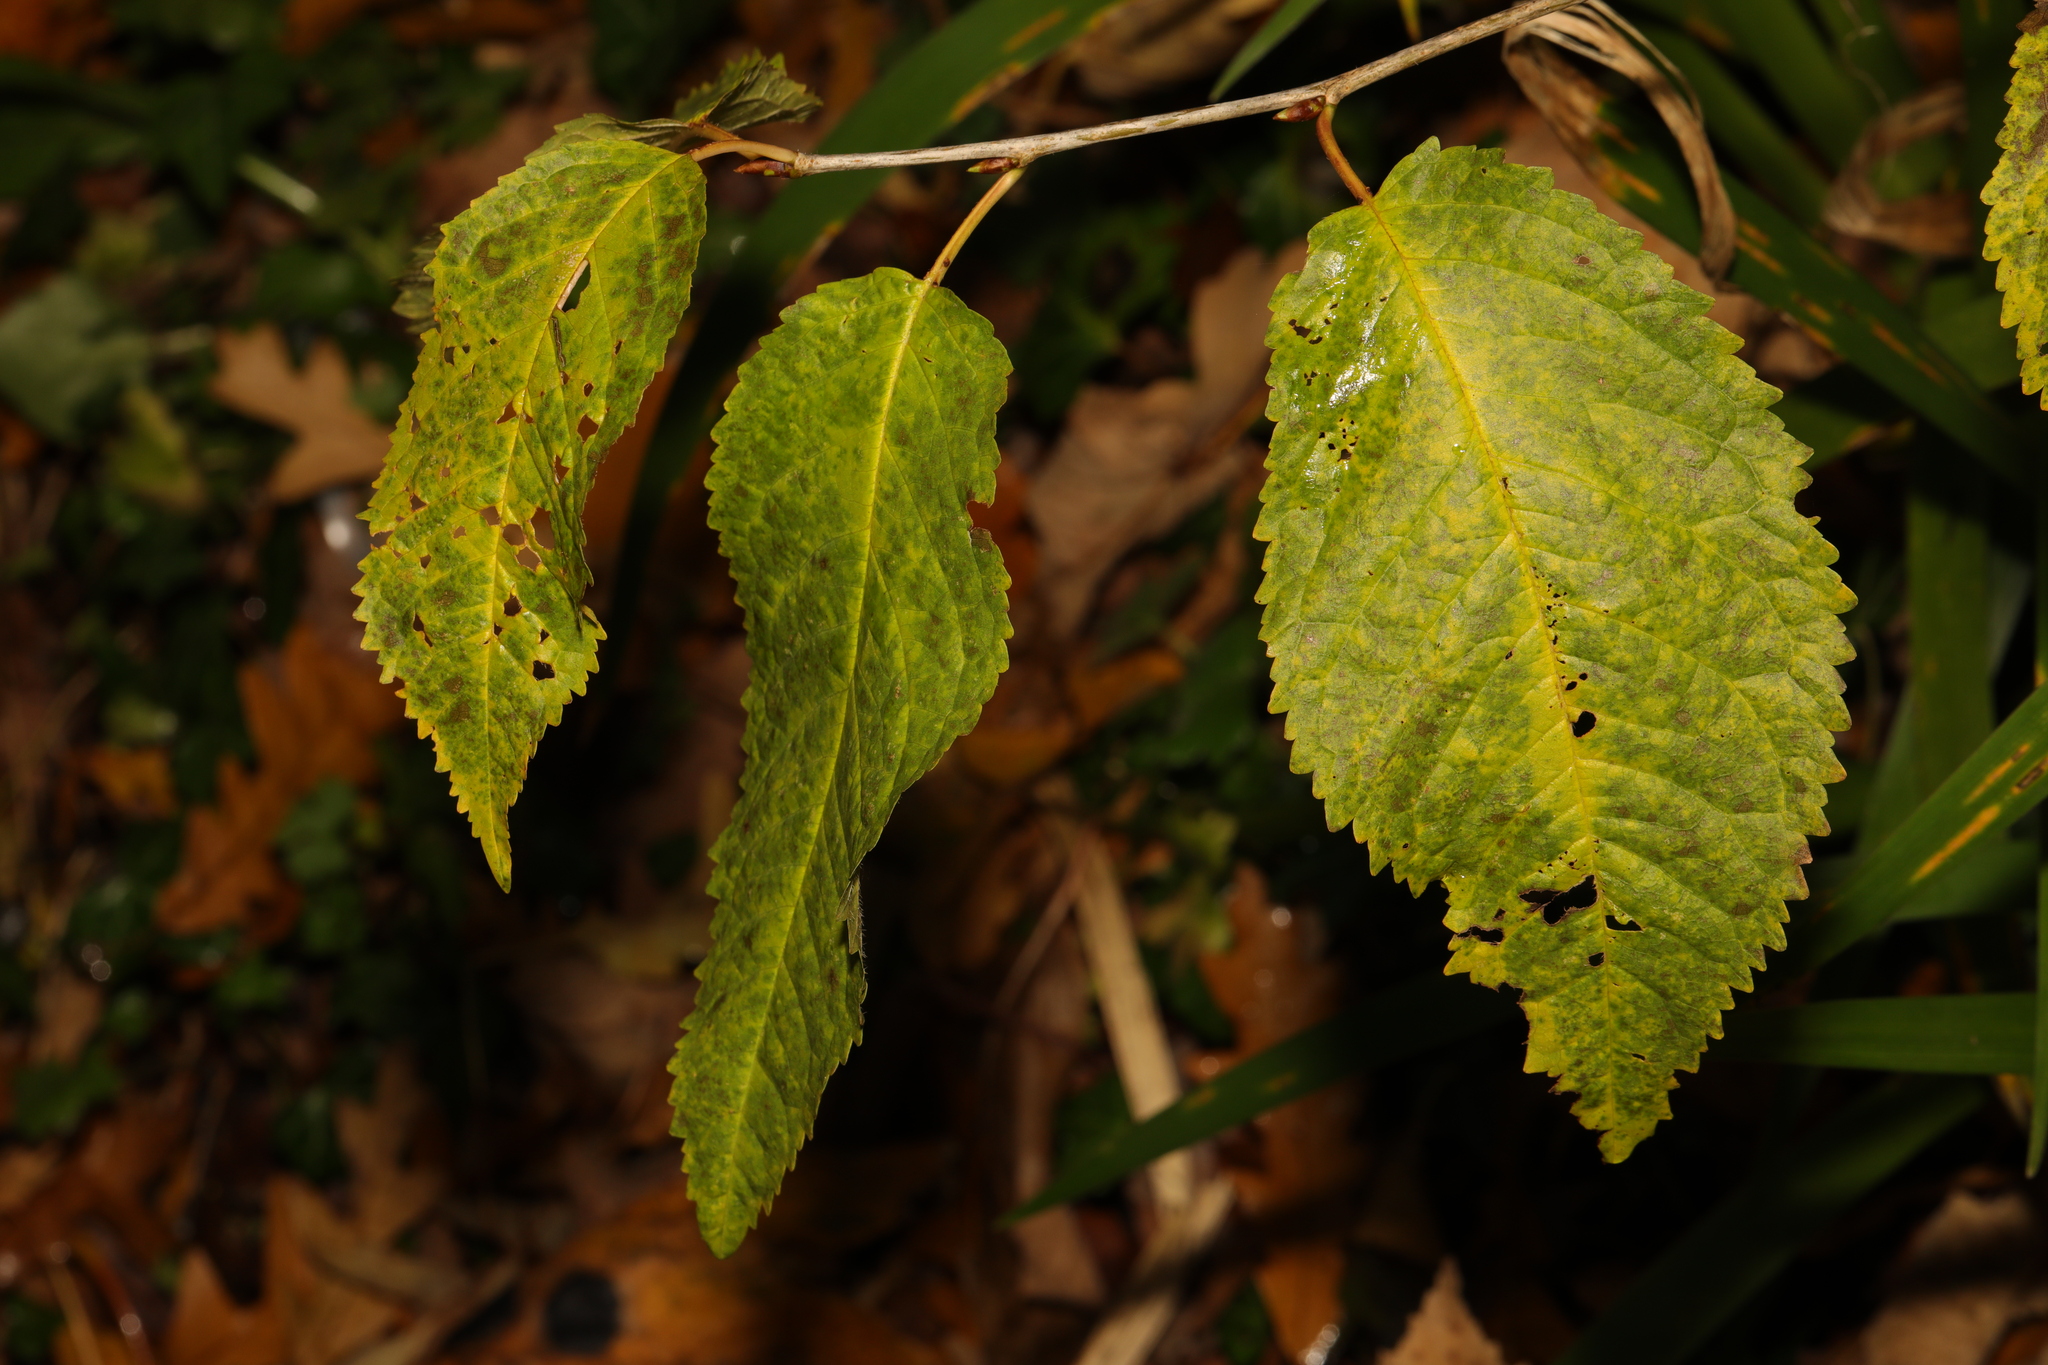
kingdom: Plantae
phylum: Tracheophyta
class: Magnoliopsida
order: Rosales
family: Rosaceae
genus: Prunus
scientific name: Prunus avium
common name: Sweet cherry
